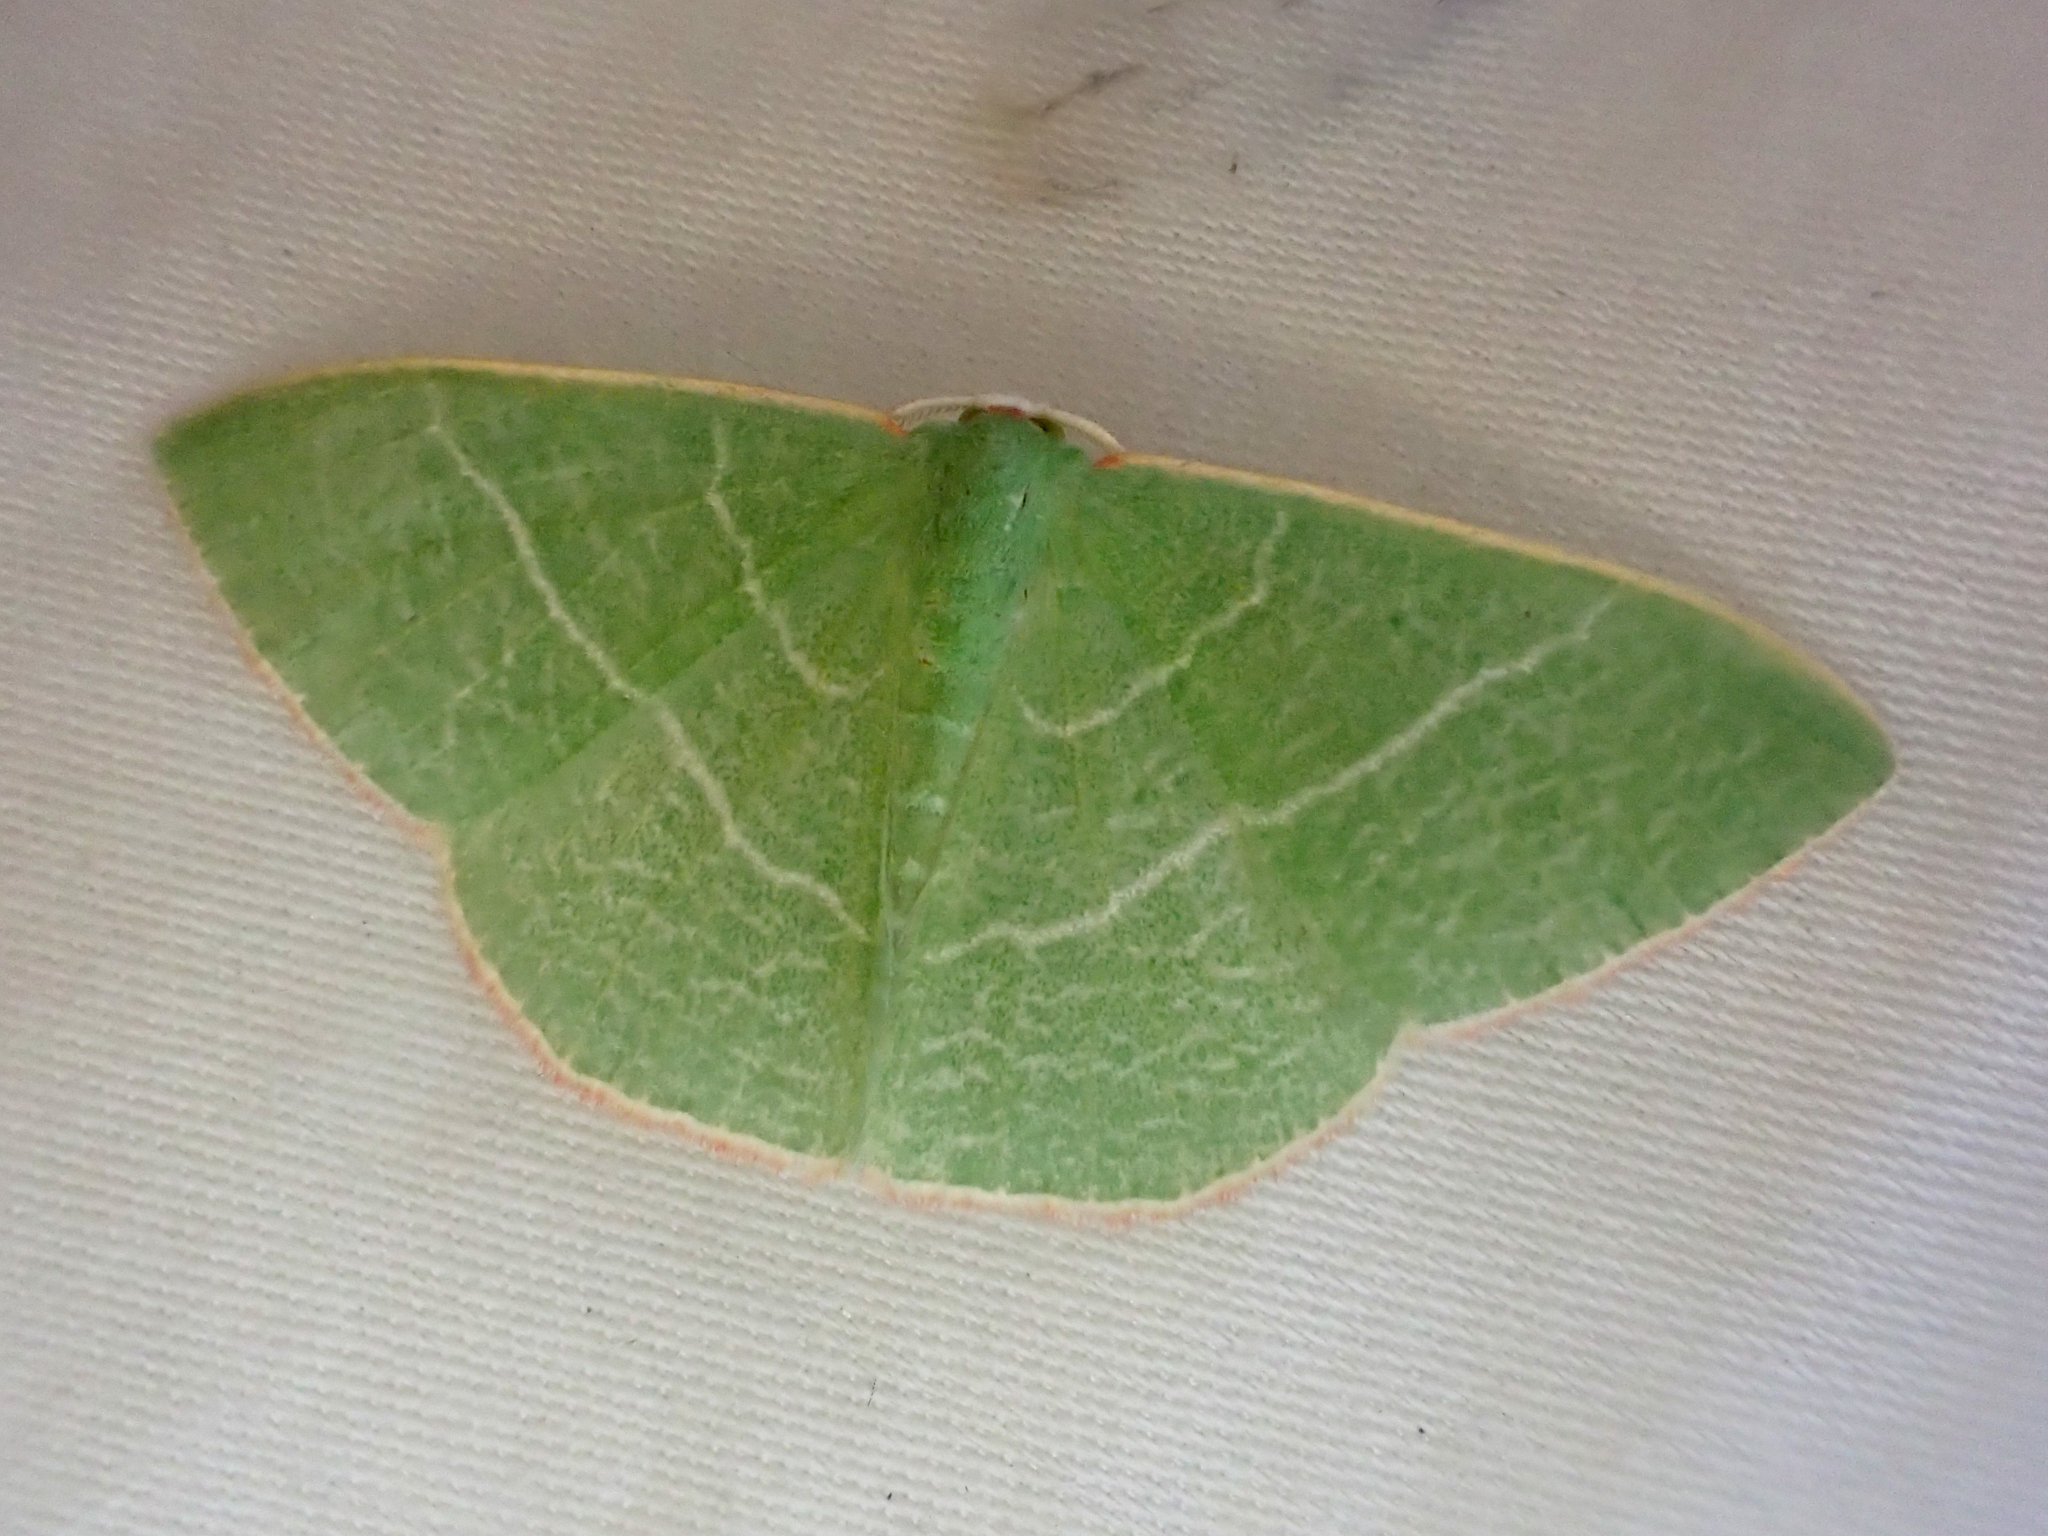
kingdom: Animalia
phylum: Arthropoda
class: Insecta
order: Lepidoptera
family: Geometridae
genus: Nemoria
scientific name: Nemoria leptalea
